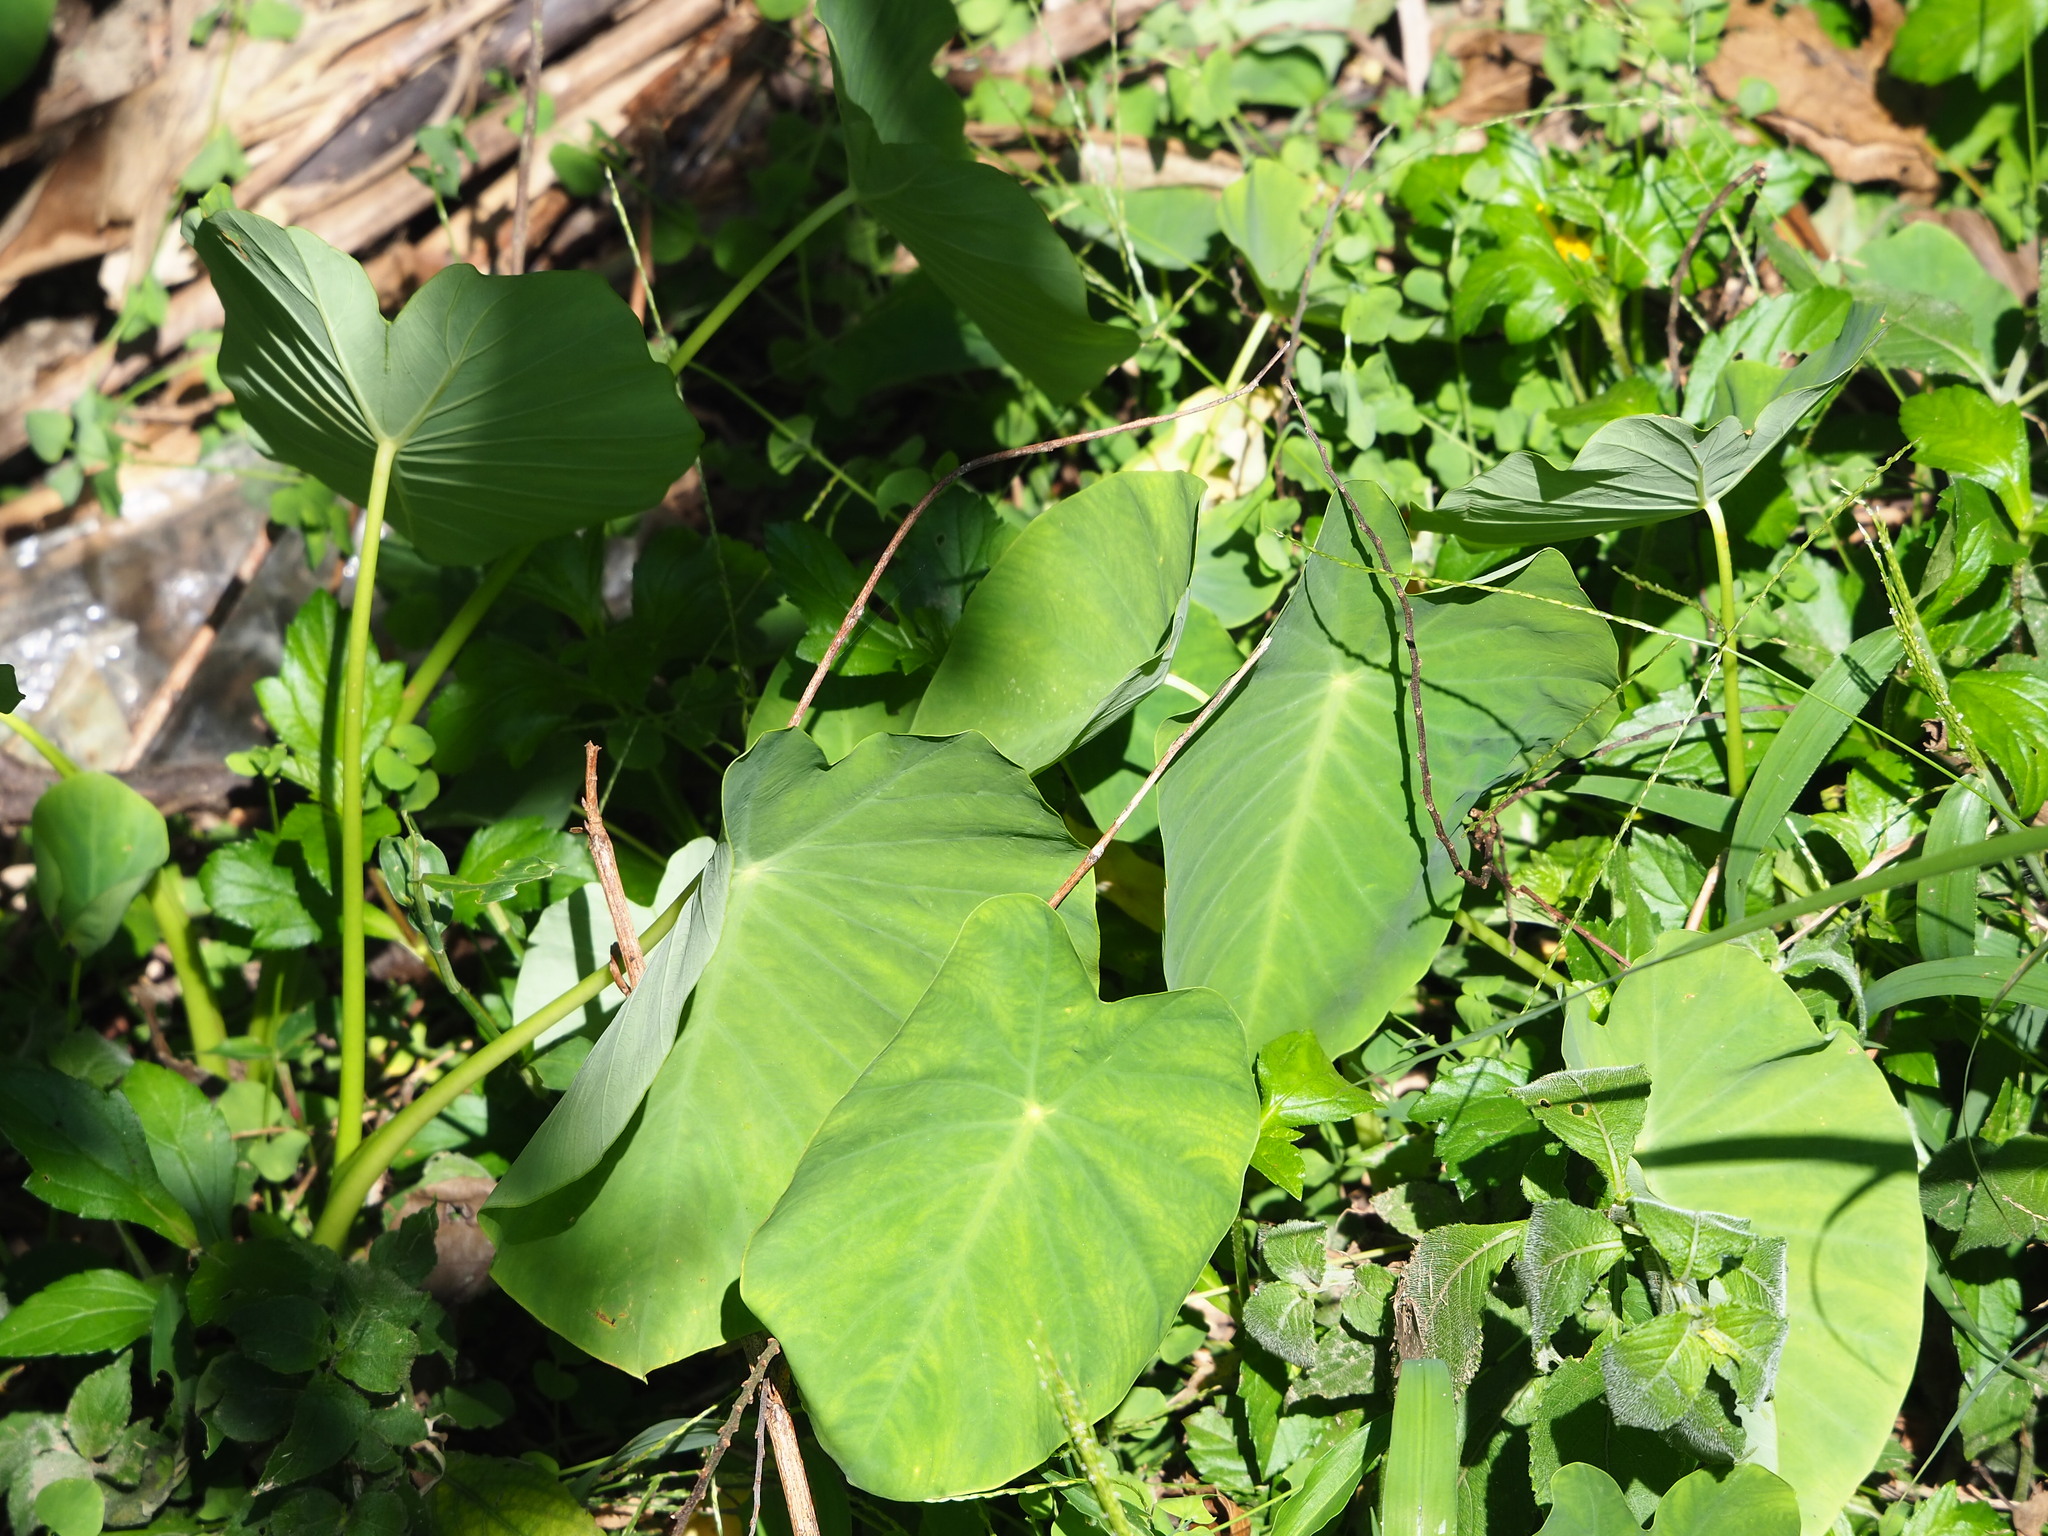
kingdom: Plantae
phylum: Tracheophyta
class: Liliopsida
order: Alismatales
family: Araceae
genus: Colocasia
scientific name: Colocasia esculenta
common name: Taro
